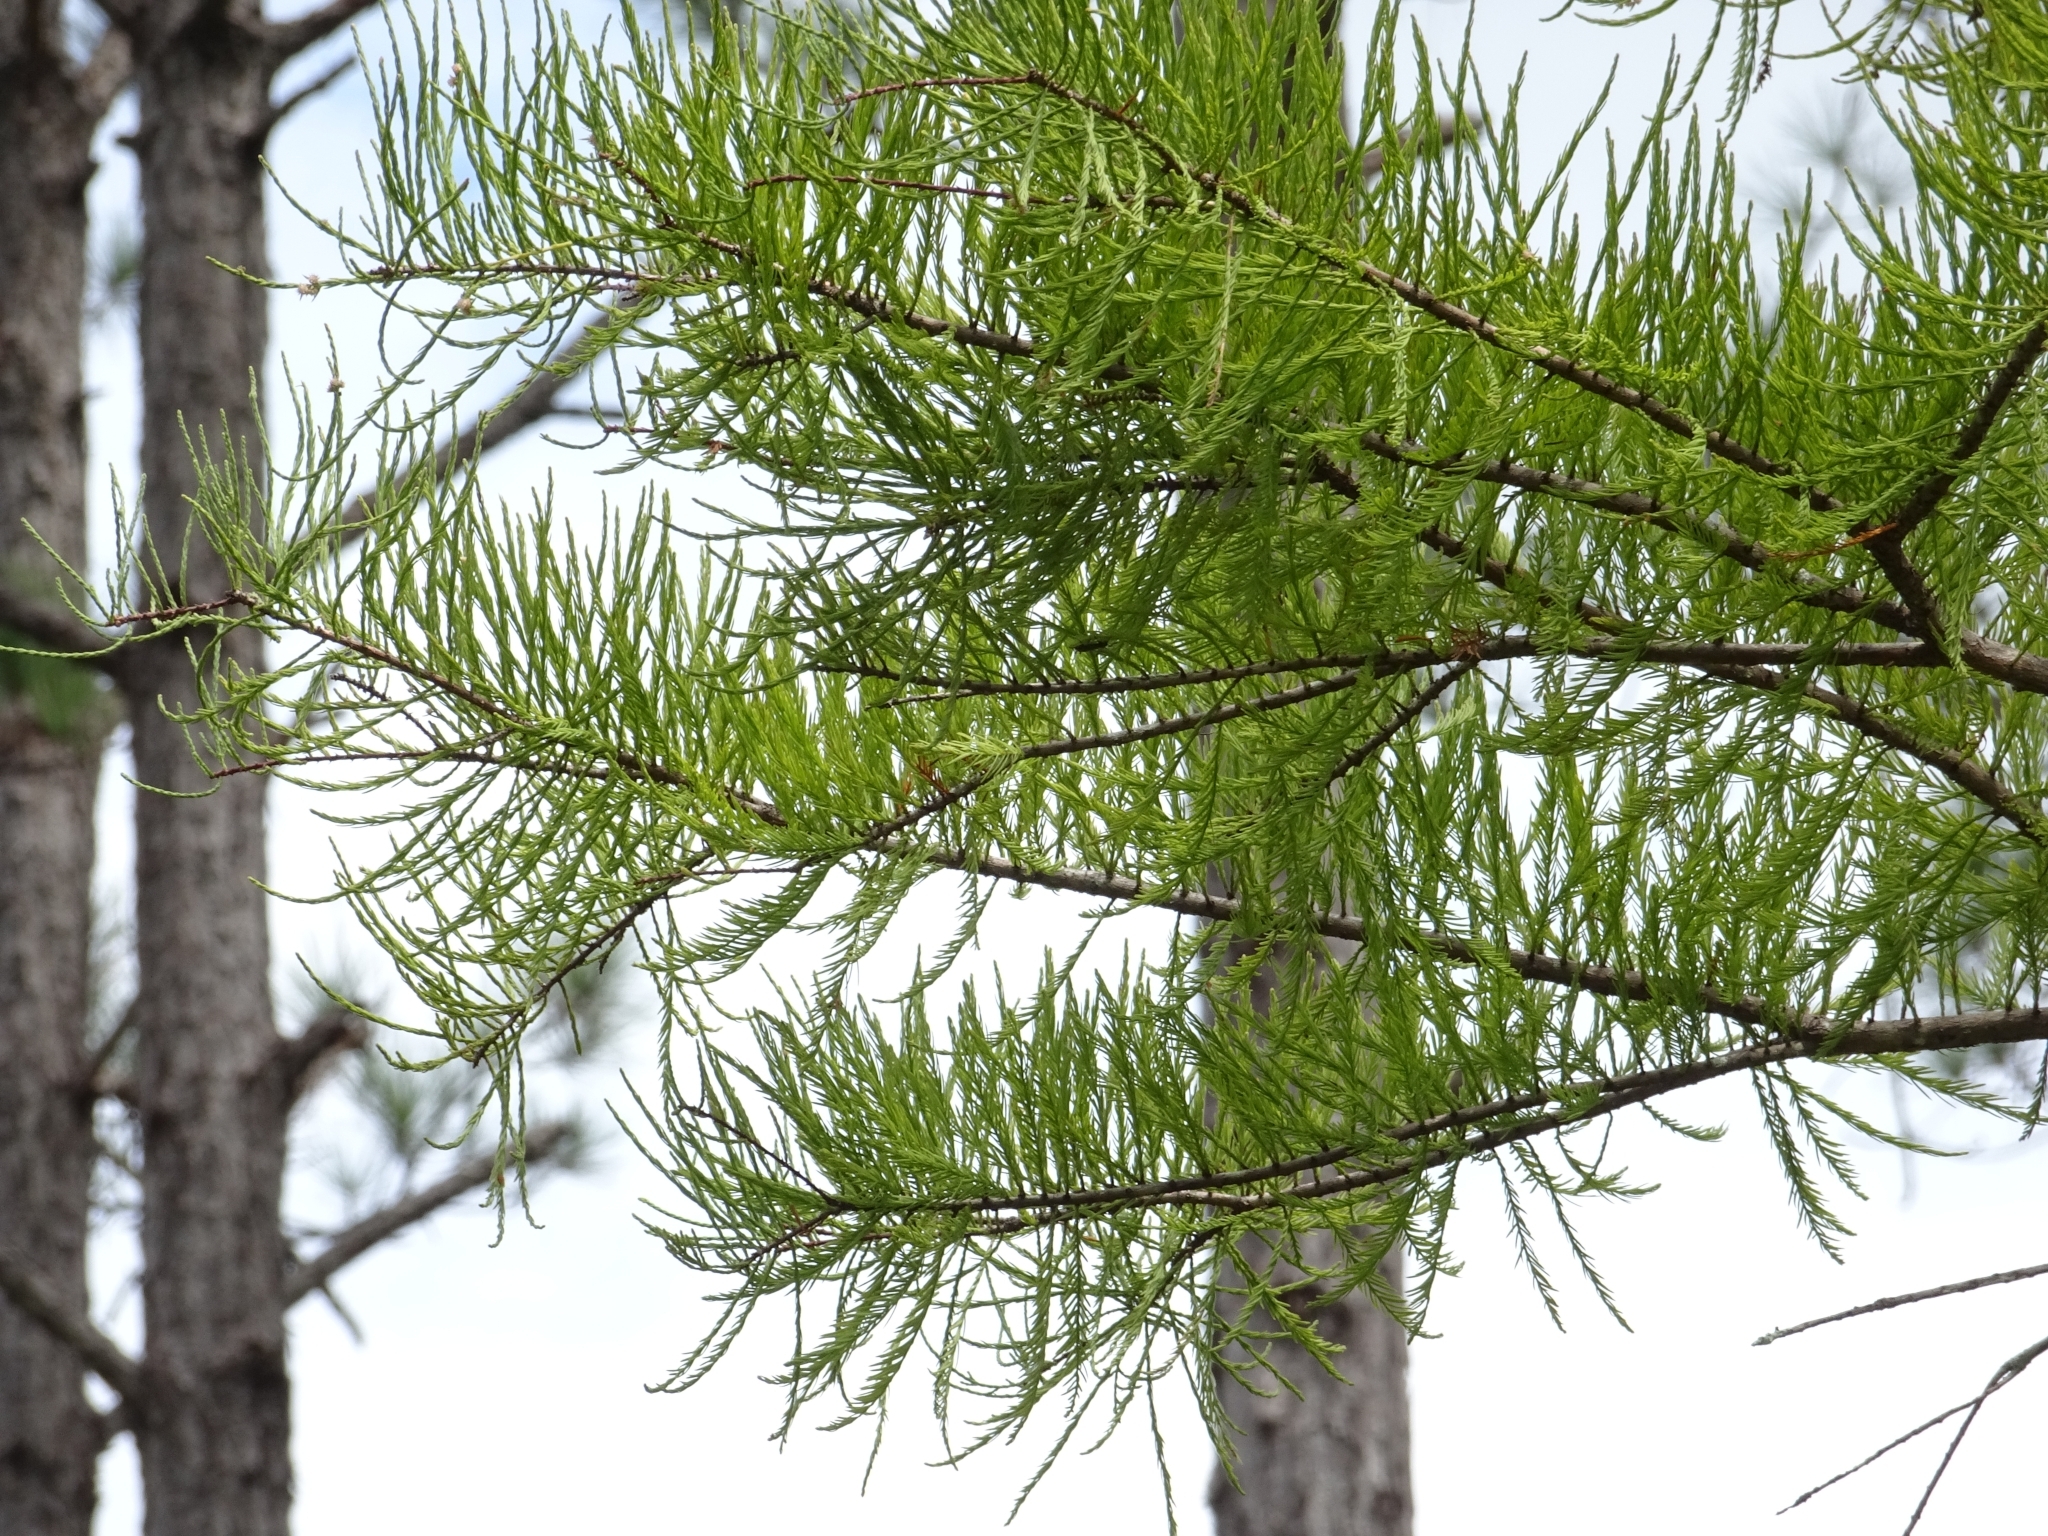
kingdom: Plantae
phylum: Tracheophyta
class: Pinopsida
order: Pinales
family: Cupressaceae
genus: Taxodium
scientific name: Taxodium distichum
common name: Bald cypress
